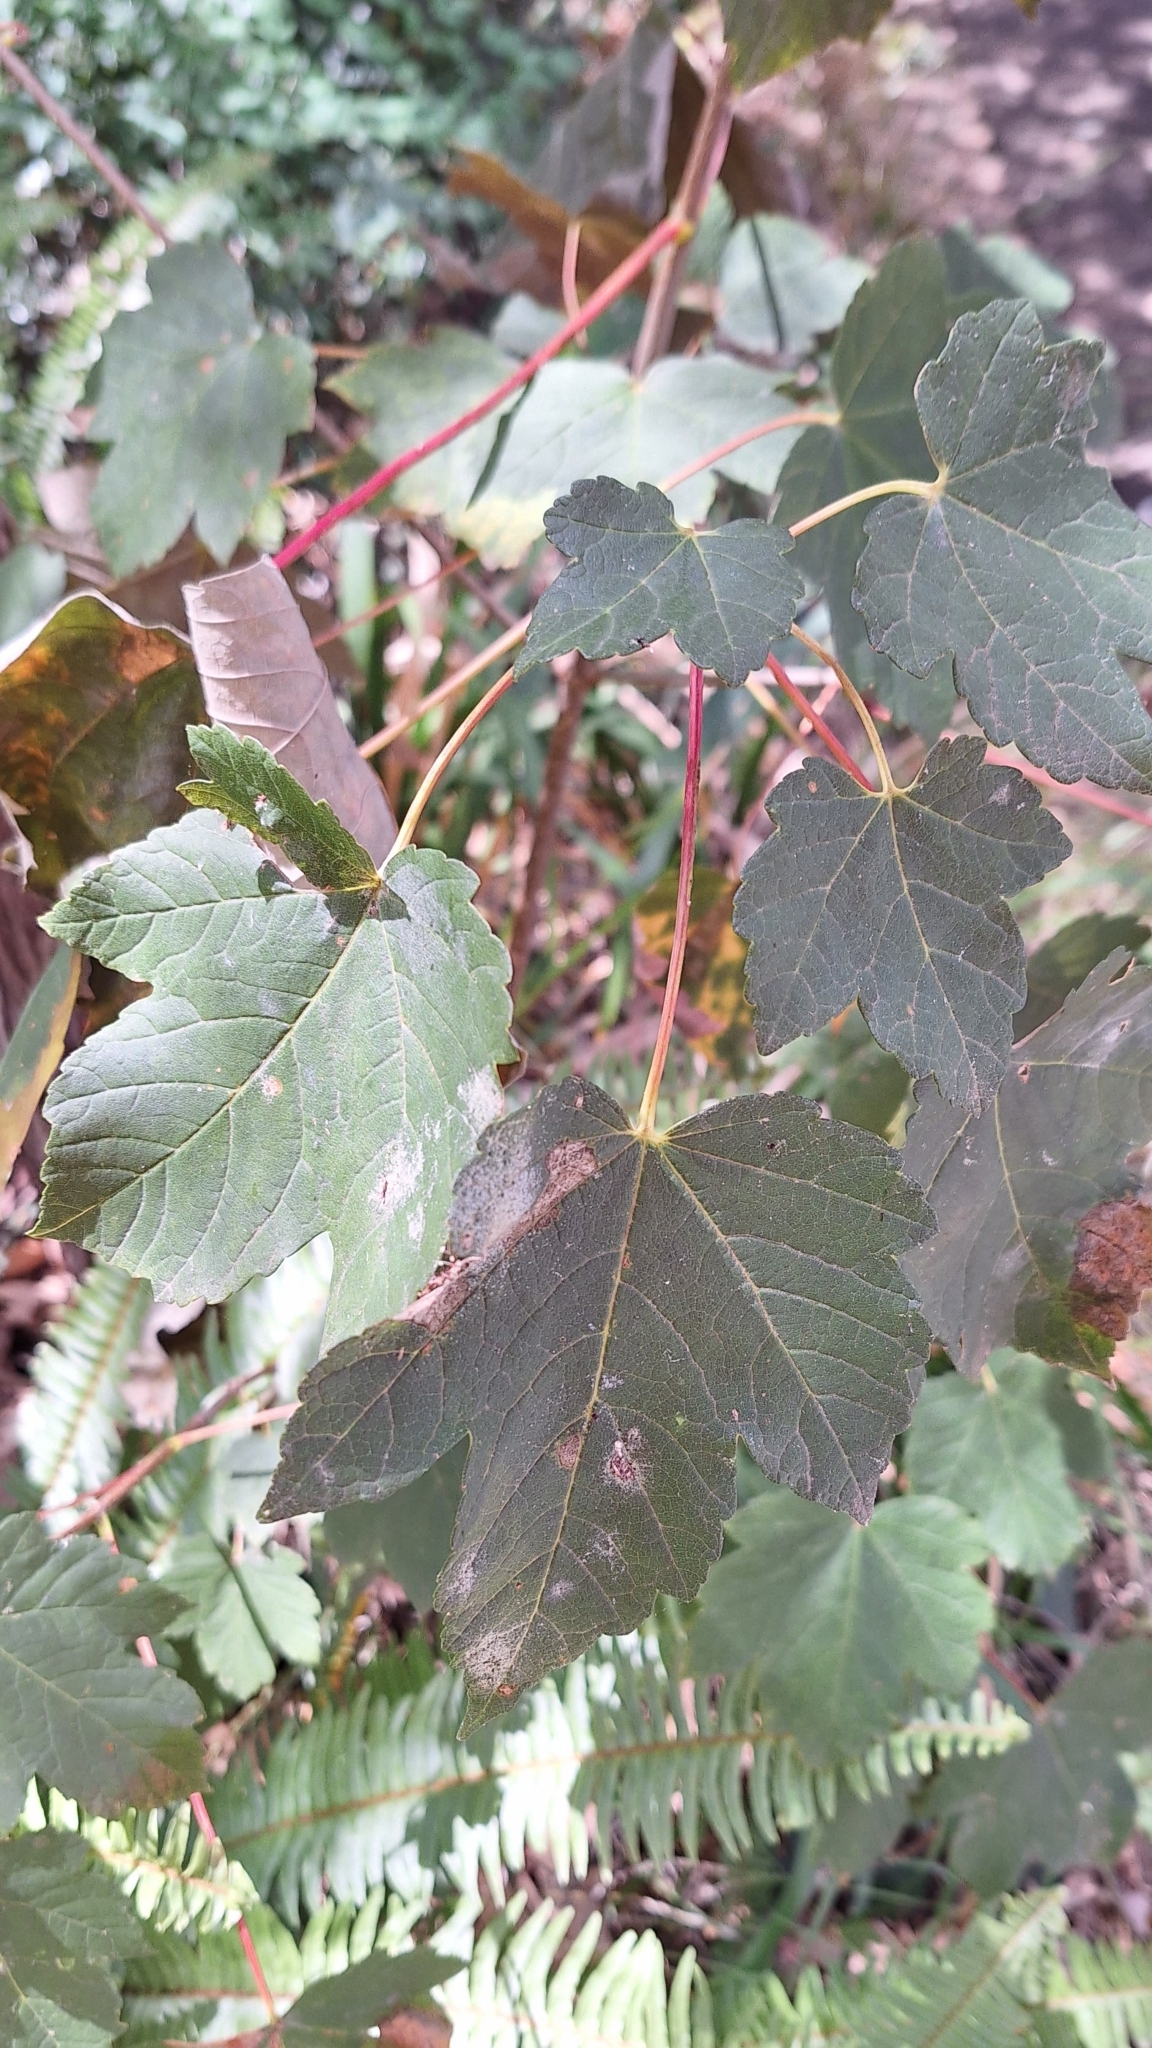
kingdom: Plantae
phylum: Tracheophyta
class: Magnoliopsida
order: Sapindales
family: Sapindaceae
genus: Acer
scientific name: Acer pseudoplatanus
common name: Sycamore
